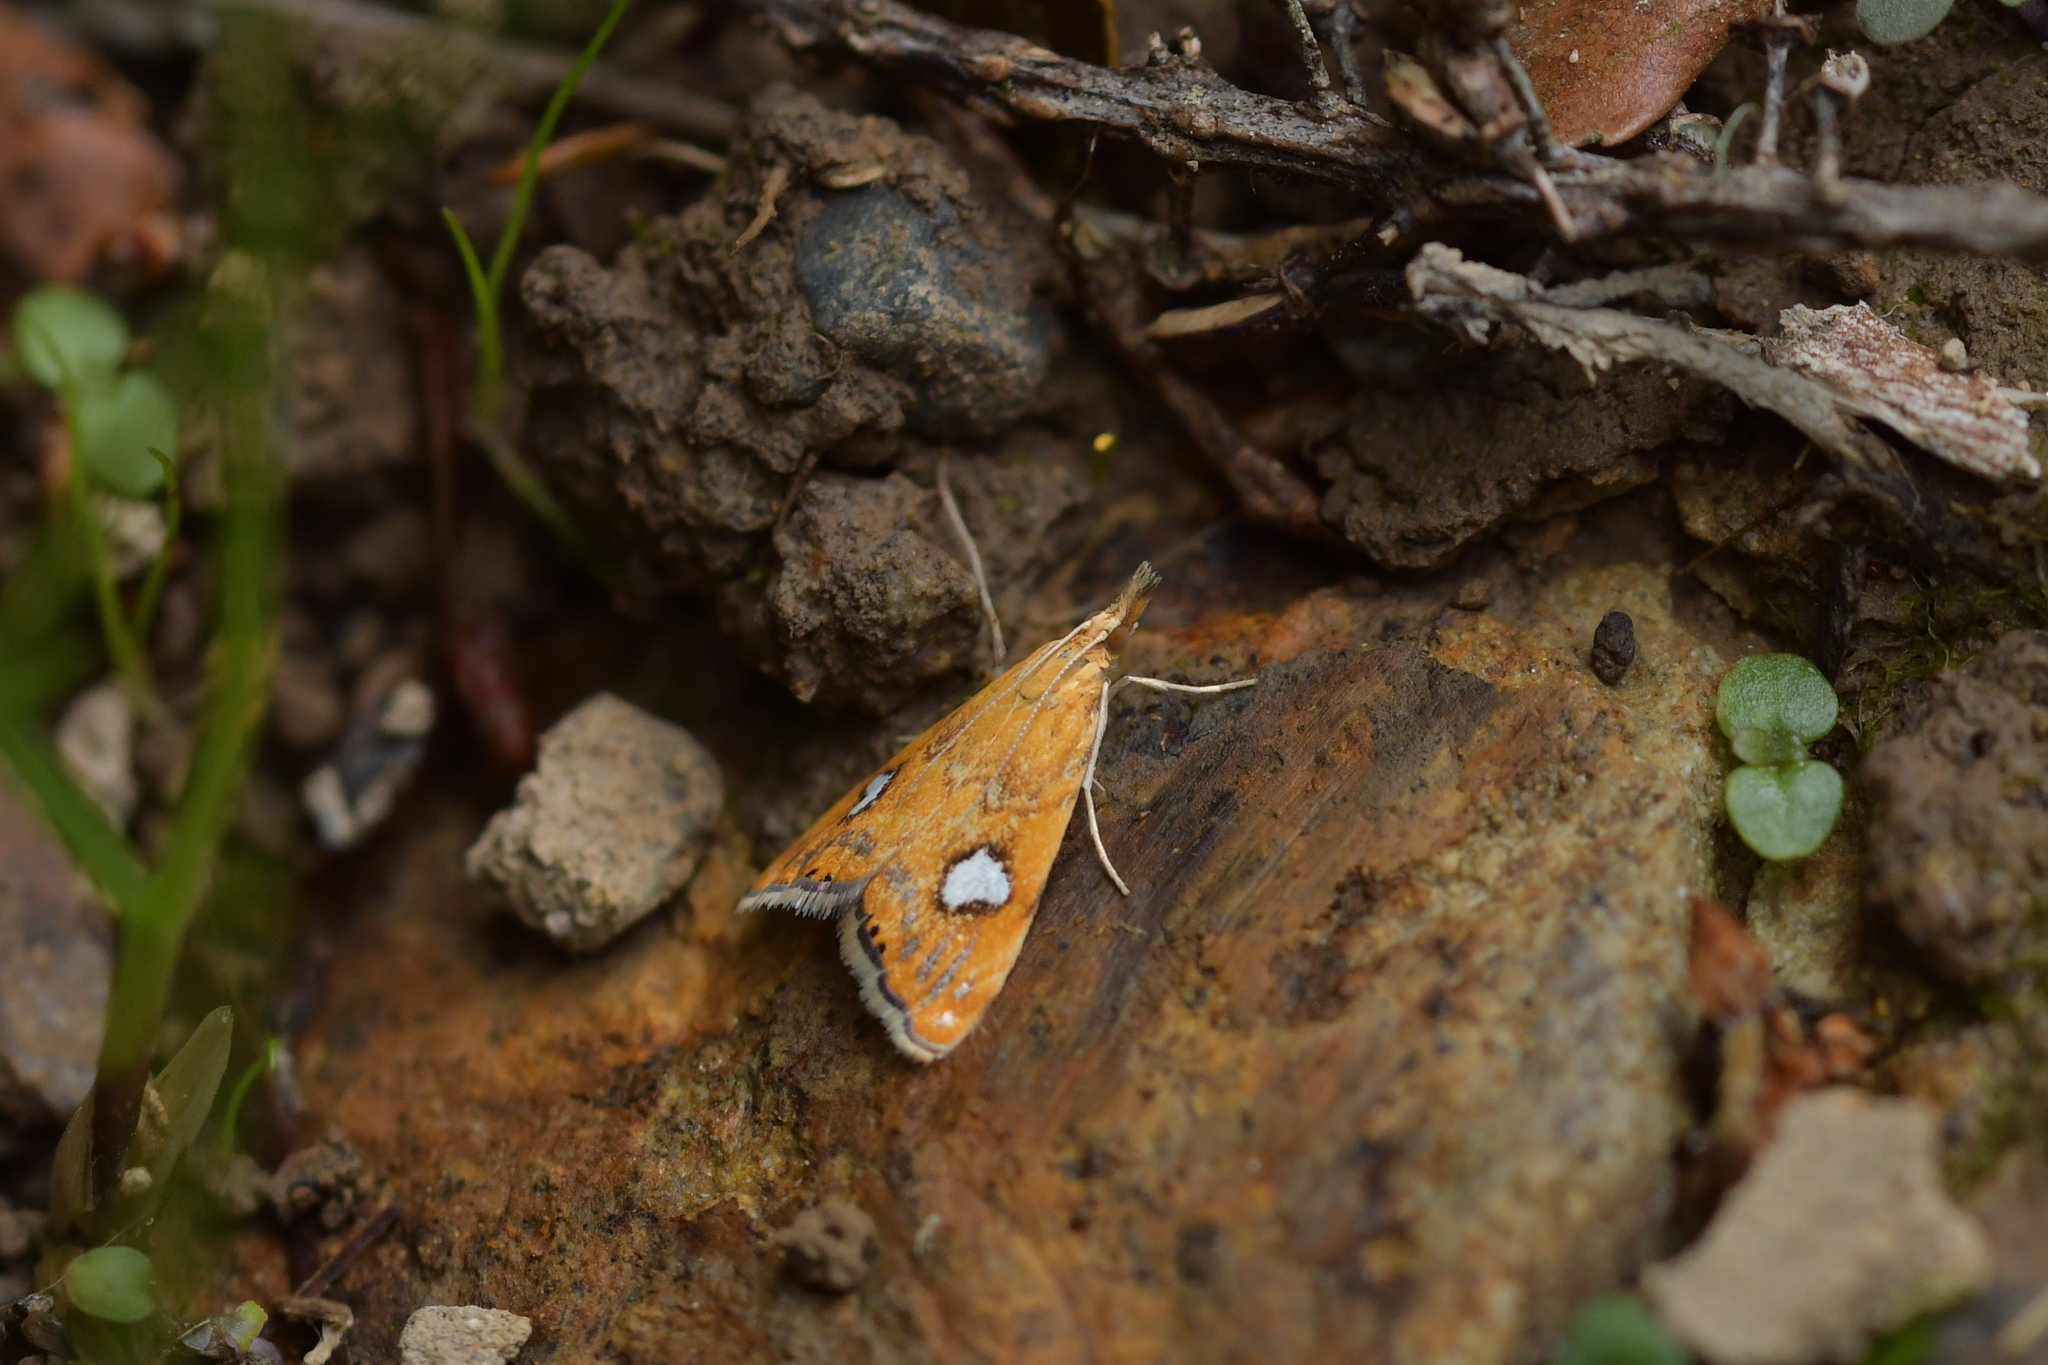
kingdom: Animalia
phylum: Arthropoda
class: Insecta
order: Lepidoptera
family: Crambidae
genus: Glaucocharis
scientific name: Glaucocharis leucoxantha
